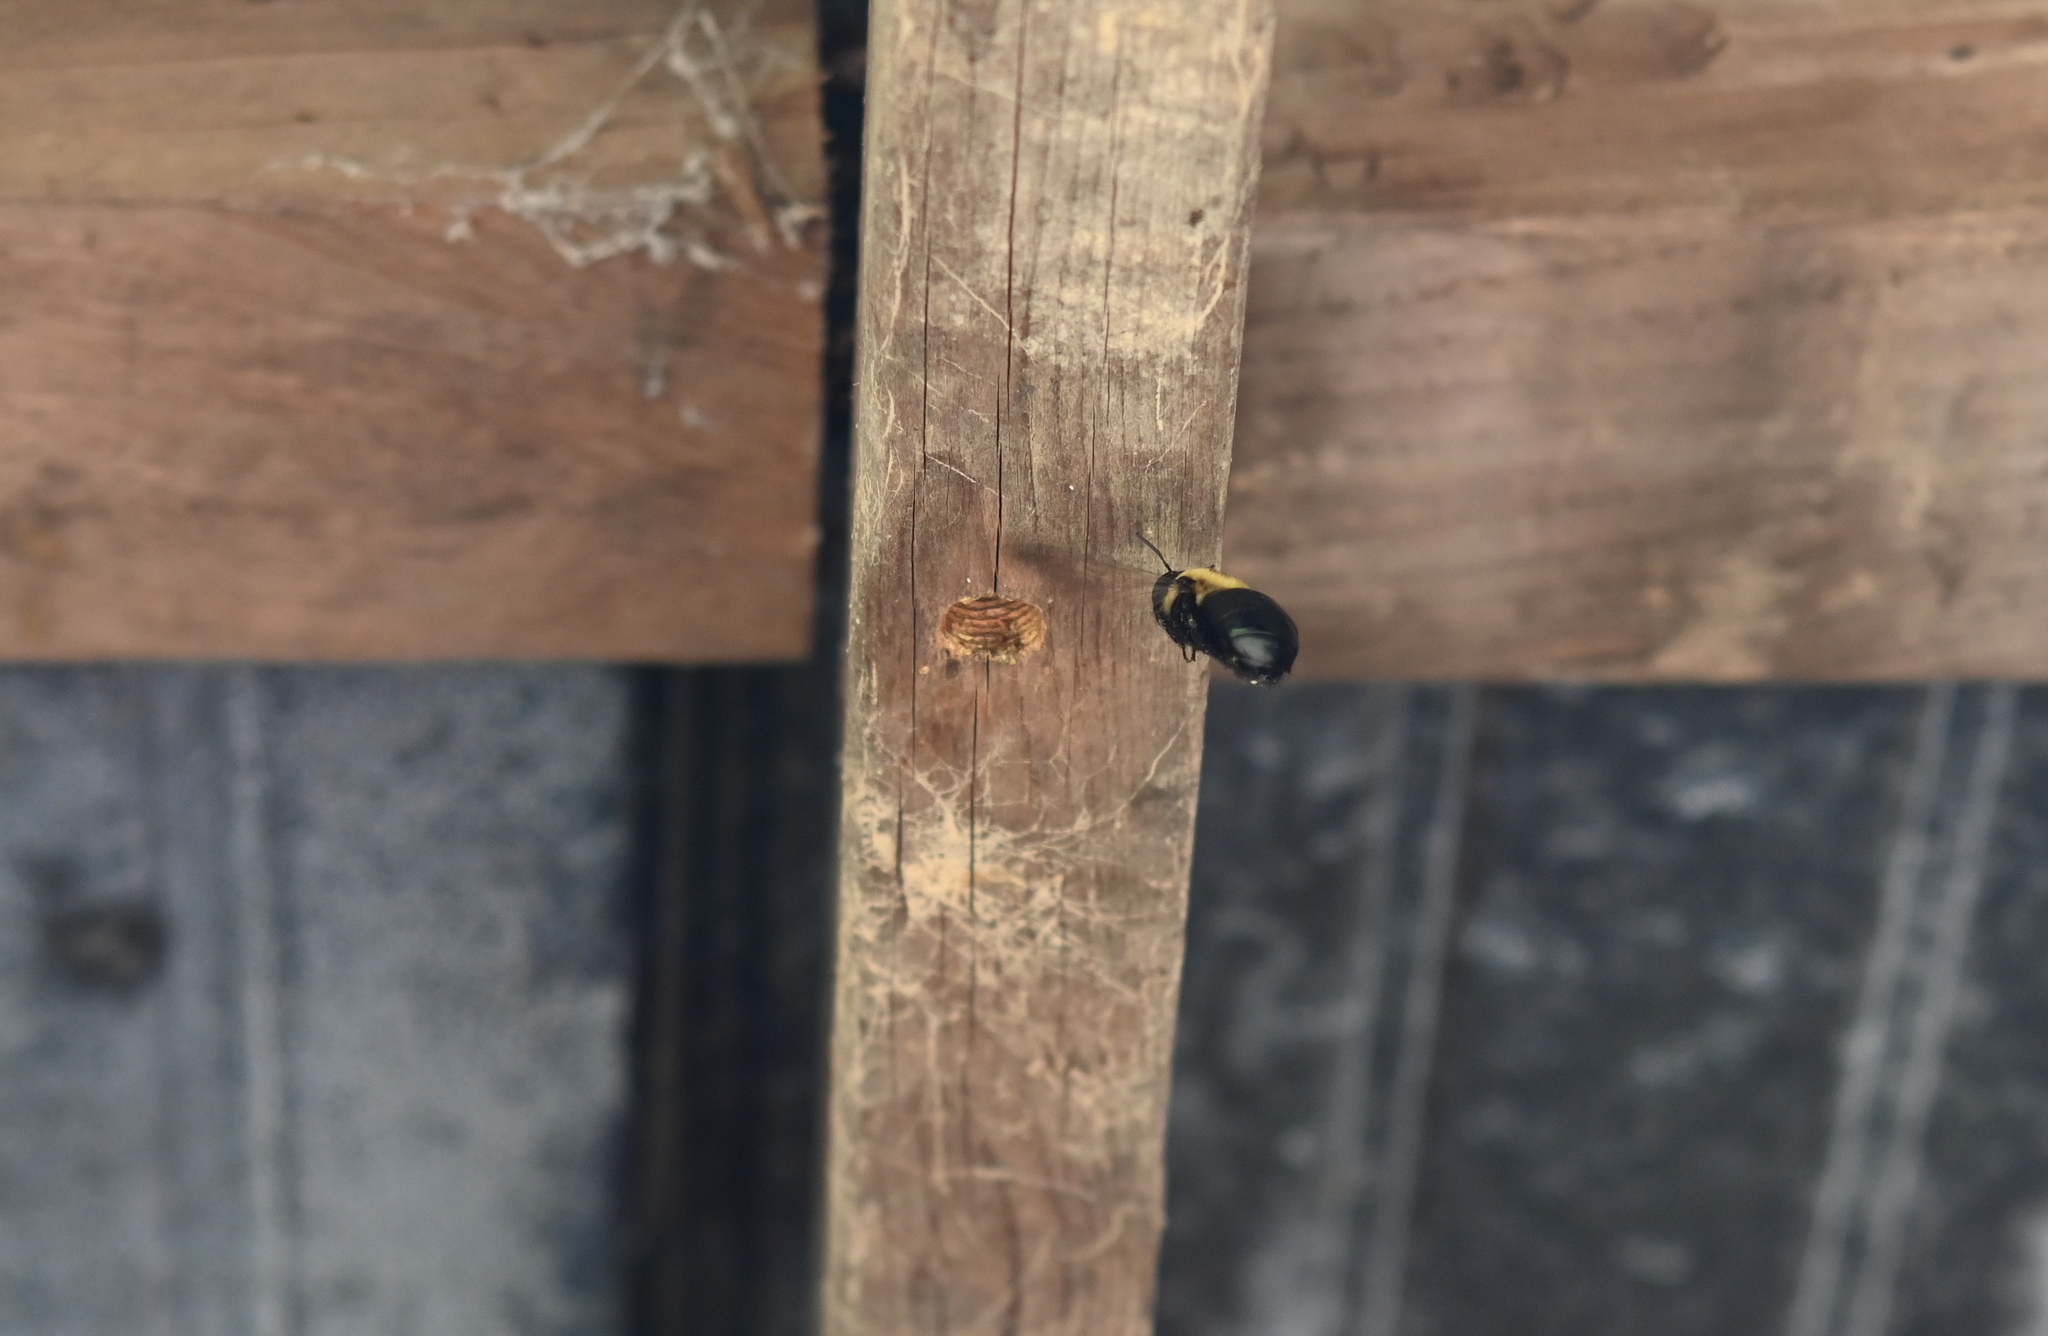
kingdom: Animalia
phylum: Arthropoda
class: Insecta
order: Hymenoptera
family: Apidae
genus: Xylocopa
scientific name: Xylocopa virginica
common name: Carpenter bee
